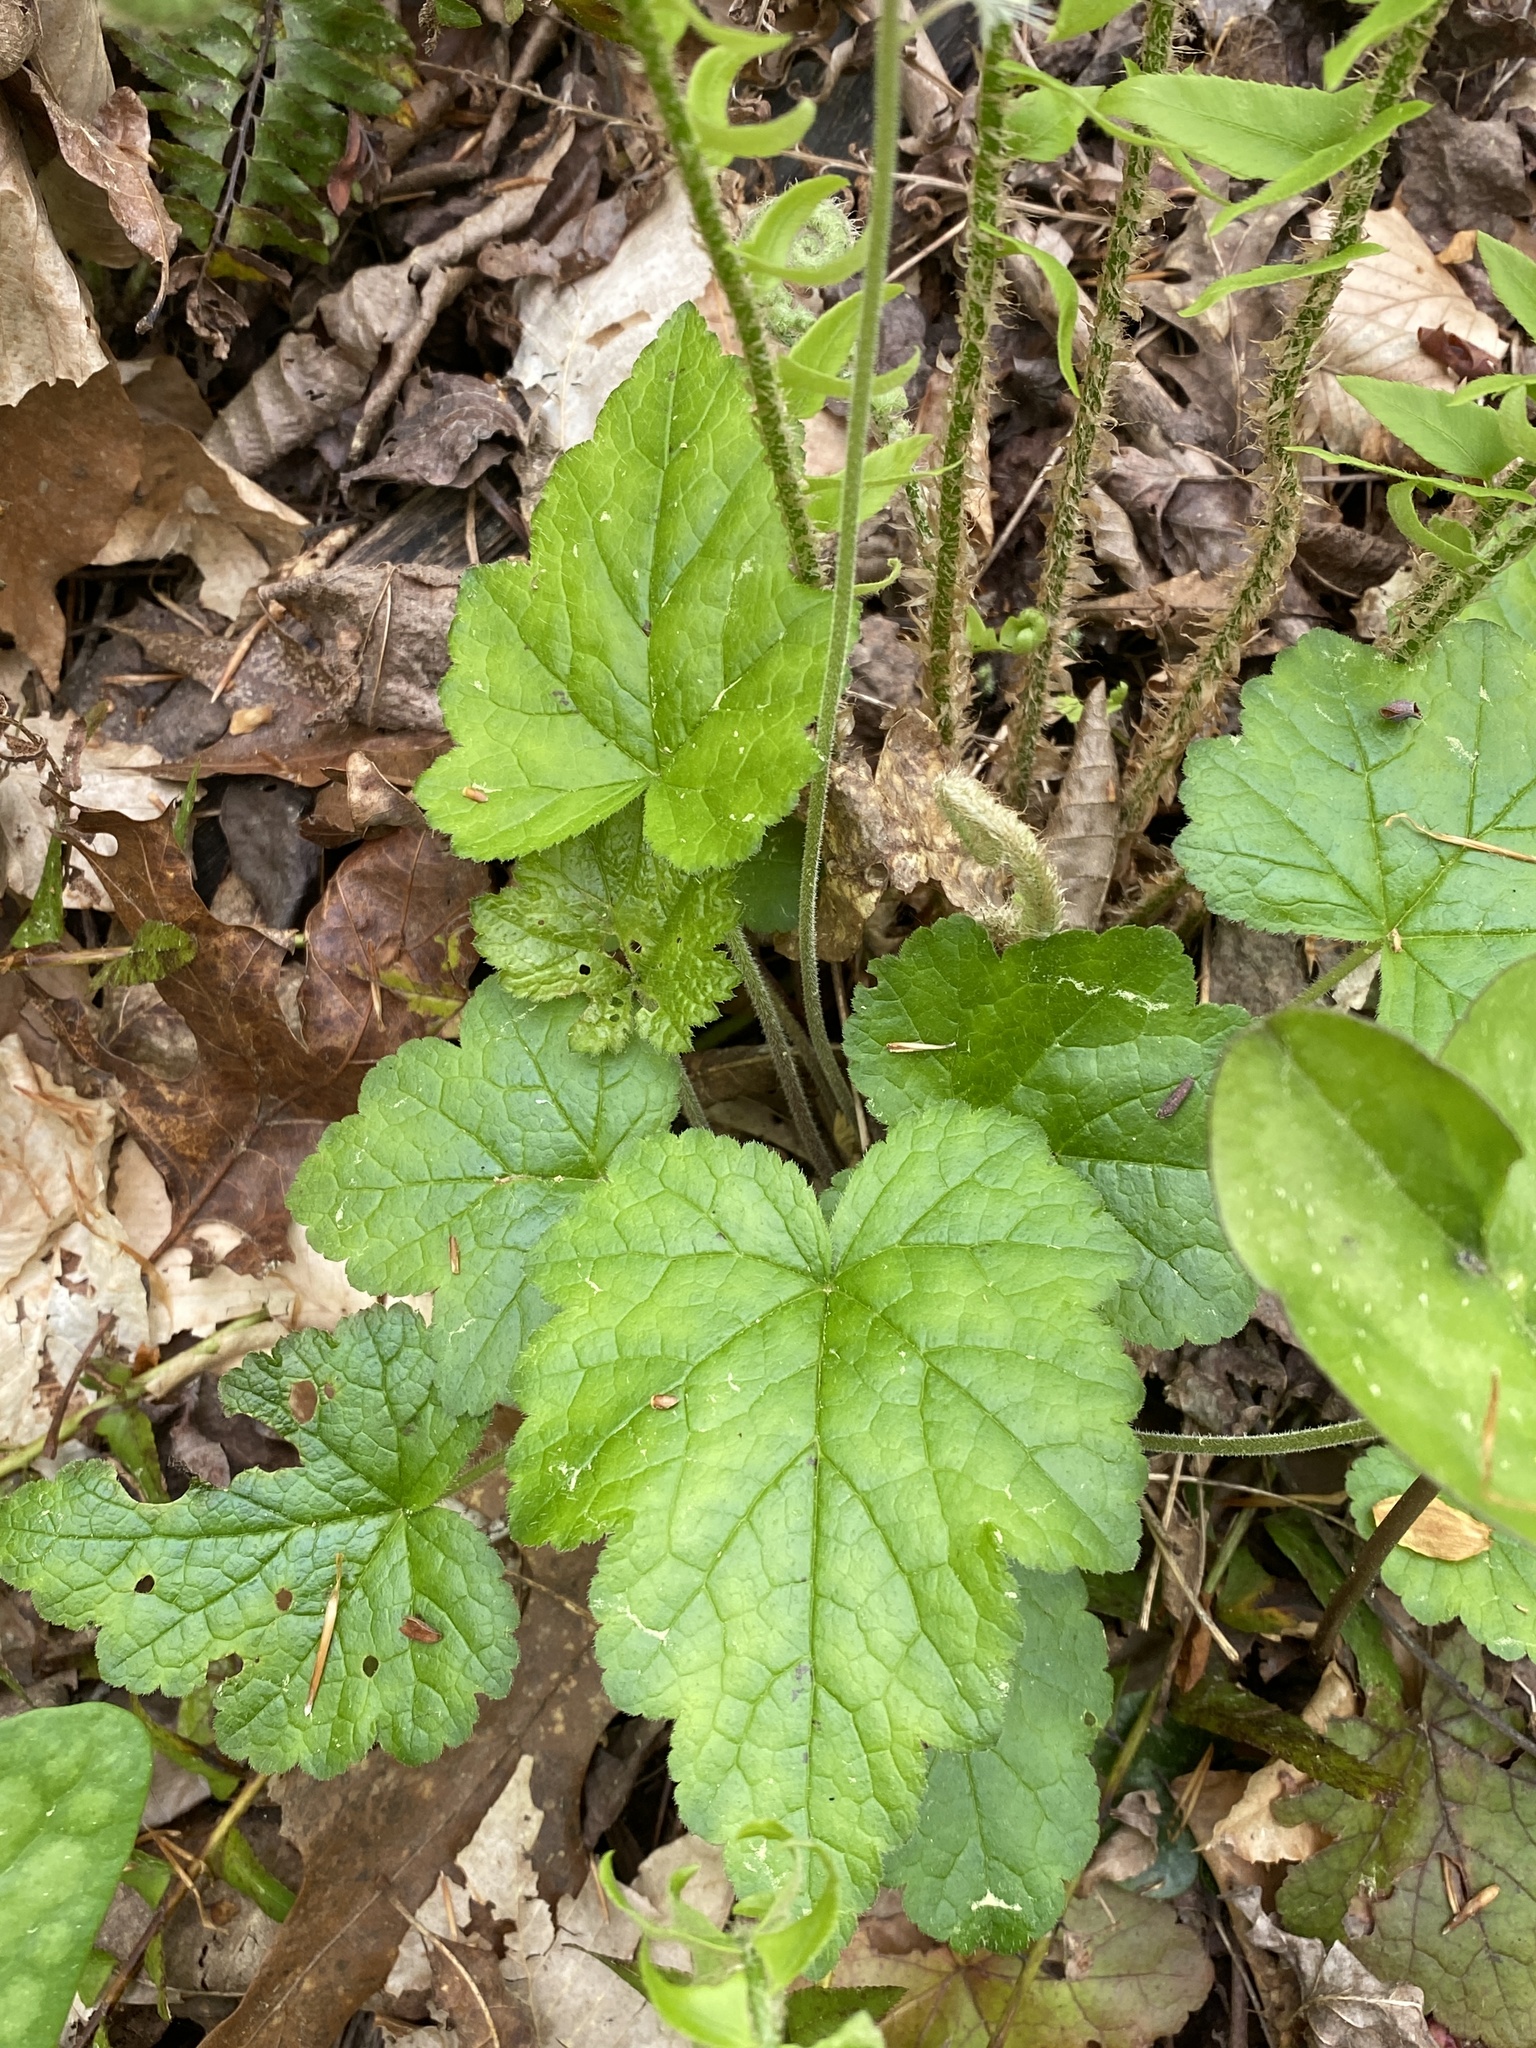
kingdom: Plantae
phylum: Tracheophyta
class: Magnoliopsida
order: Saxifragales
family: Saxifragaceae
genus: Tiarella
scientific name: Tiarella cordifolia
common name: Foamflower
